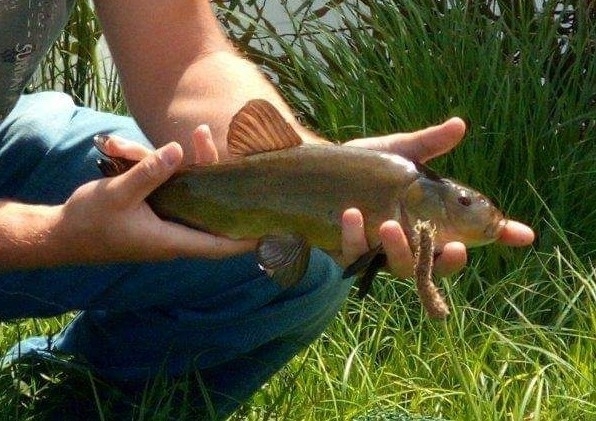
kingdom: Animalia
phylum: Chordata
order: Cypriniformes
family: Cyprinidae
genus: Tinca
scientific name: Tinca tinca
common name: Tench
